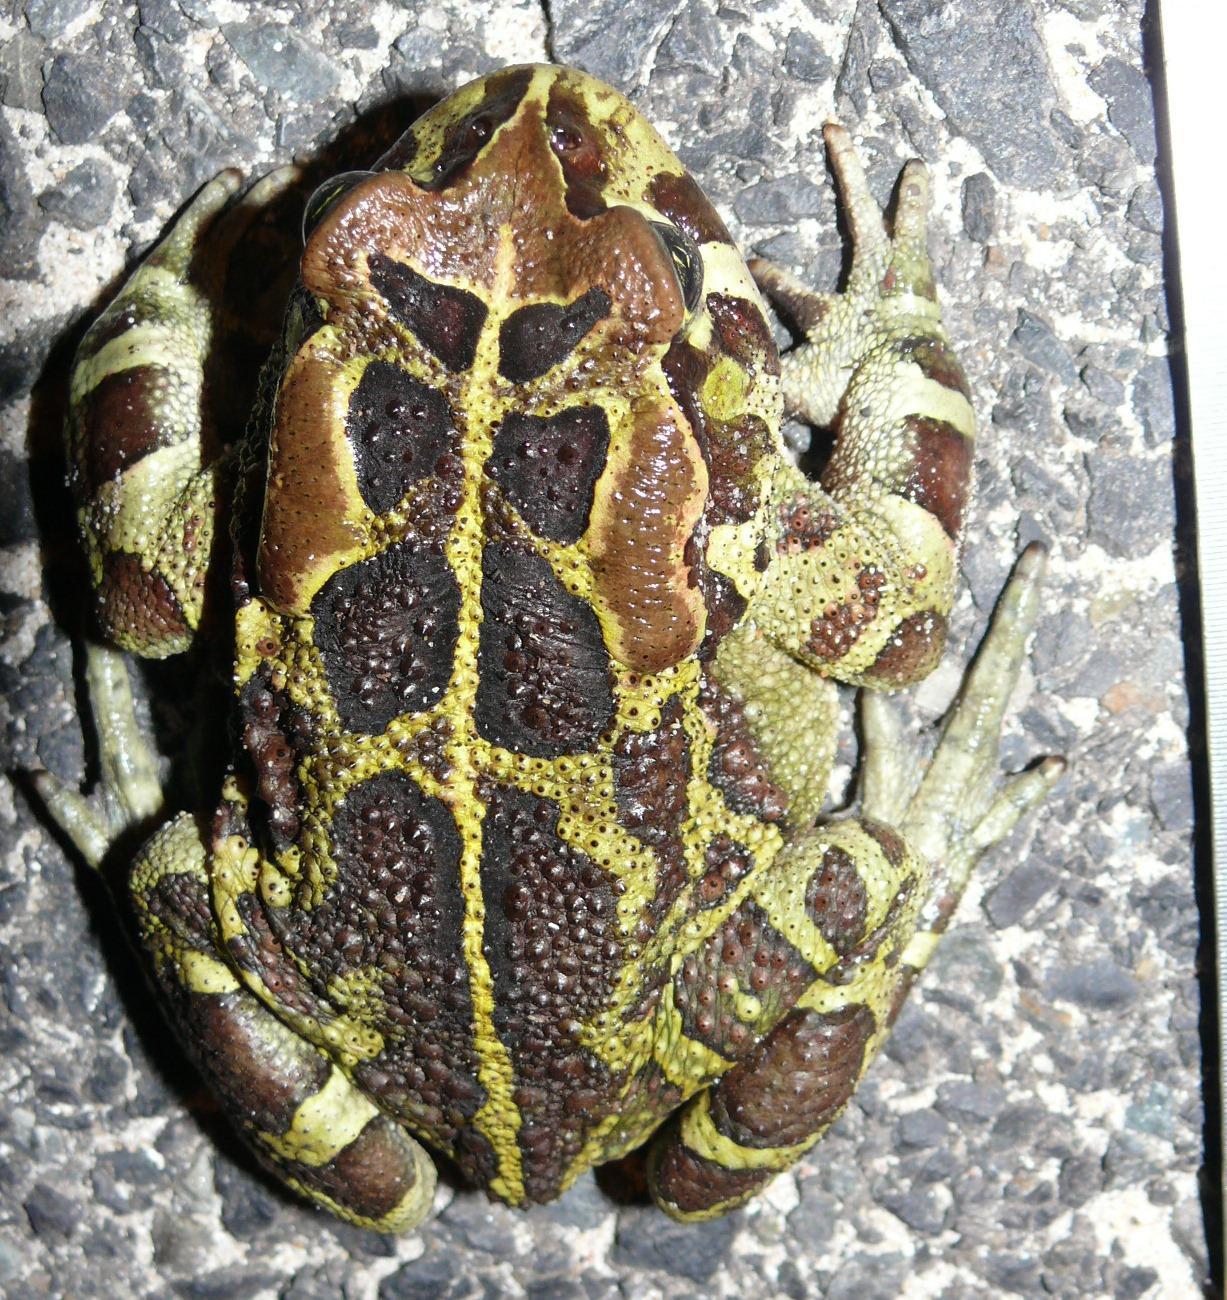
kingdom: Animalia
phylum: Chordata
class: Amphibia
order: Anura
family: Bufonidae
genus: Sclerophrys
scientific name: Sclerophrys pantherina
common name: Panther toad
